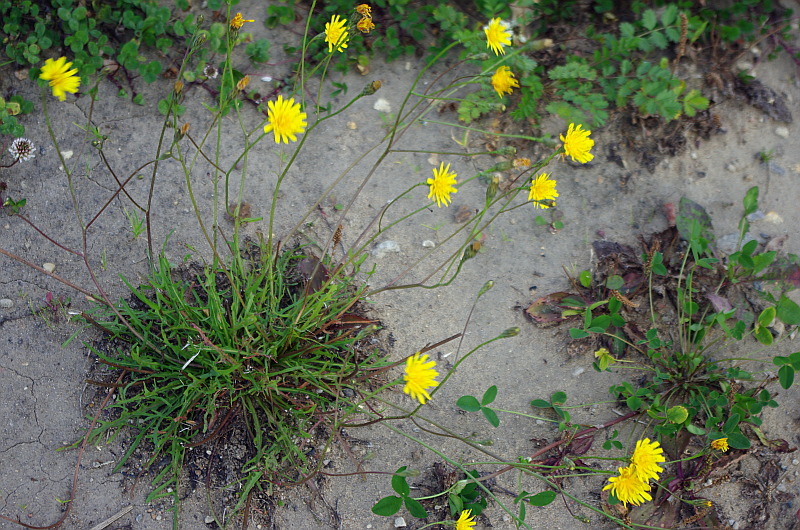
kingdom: Plantae
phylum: Tracheophyta
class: Magnoliopsida
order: Asterales
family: Asteraceae
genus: Scorzoneroides
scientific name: Scorzoneroides autumnalis
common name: Autumn hawkbit
